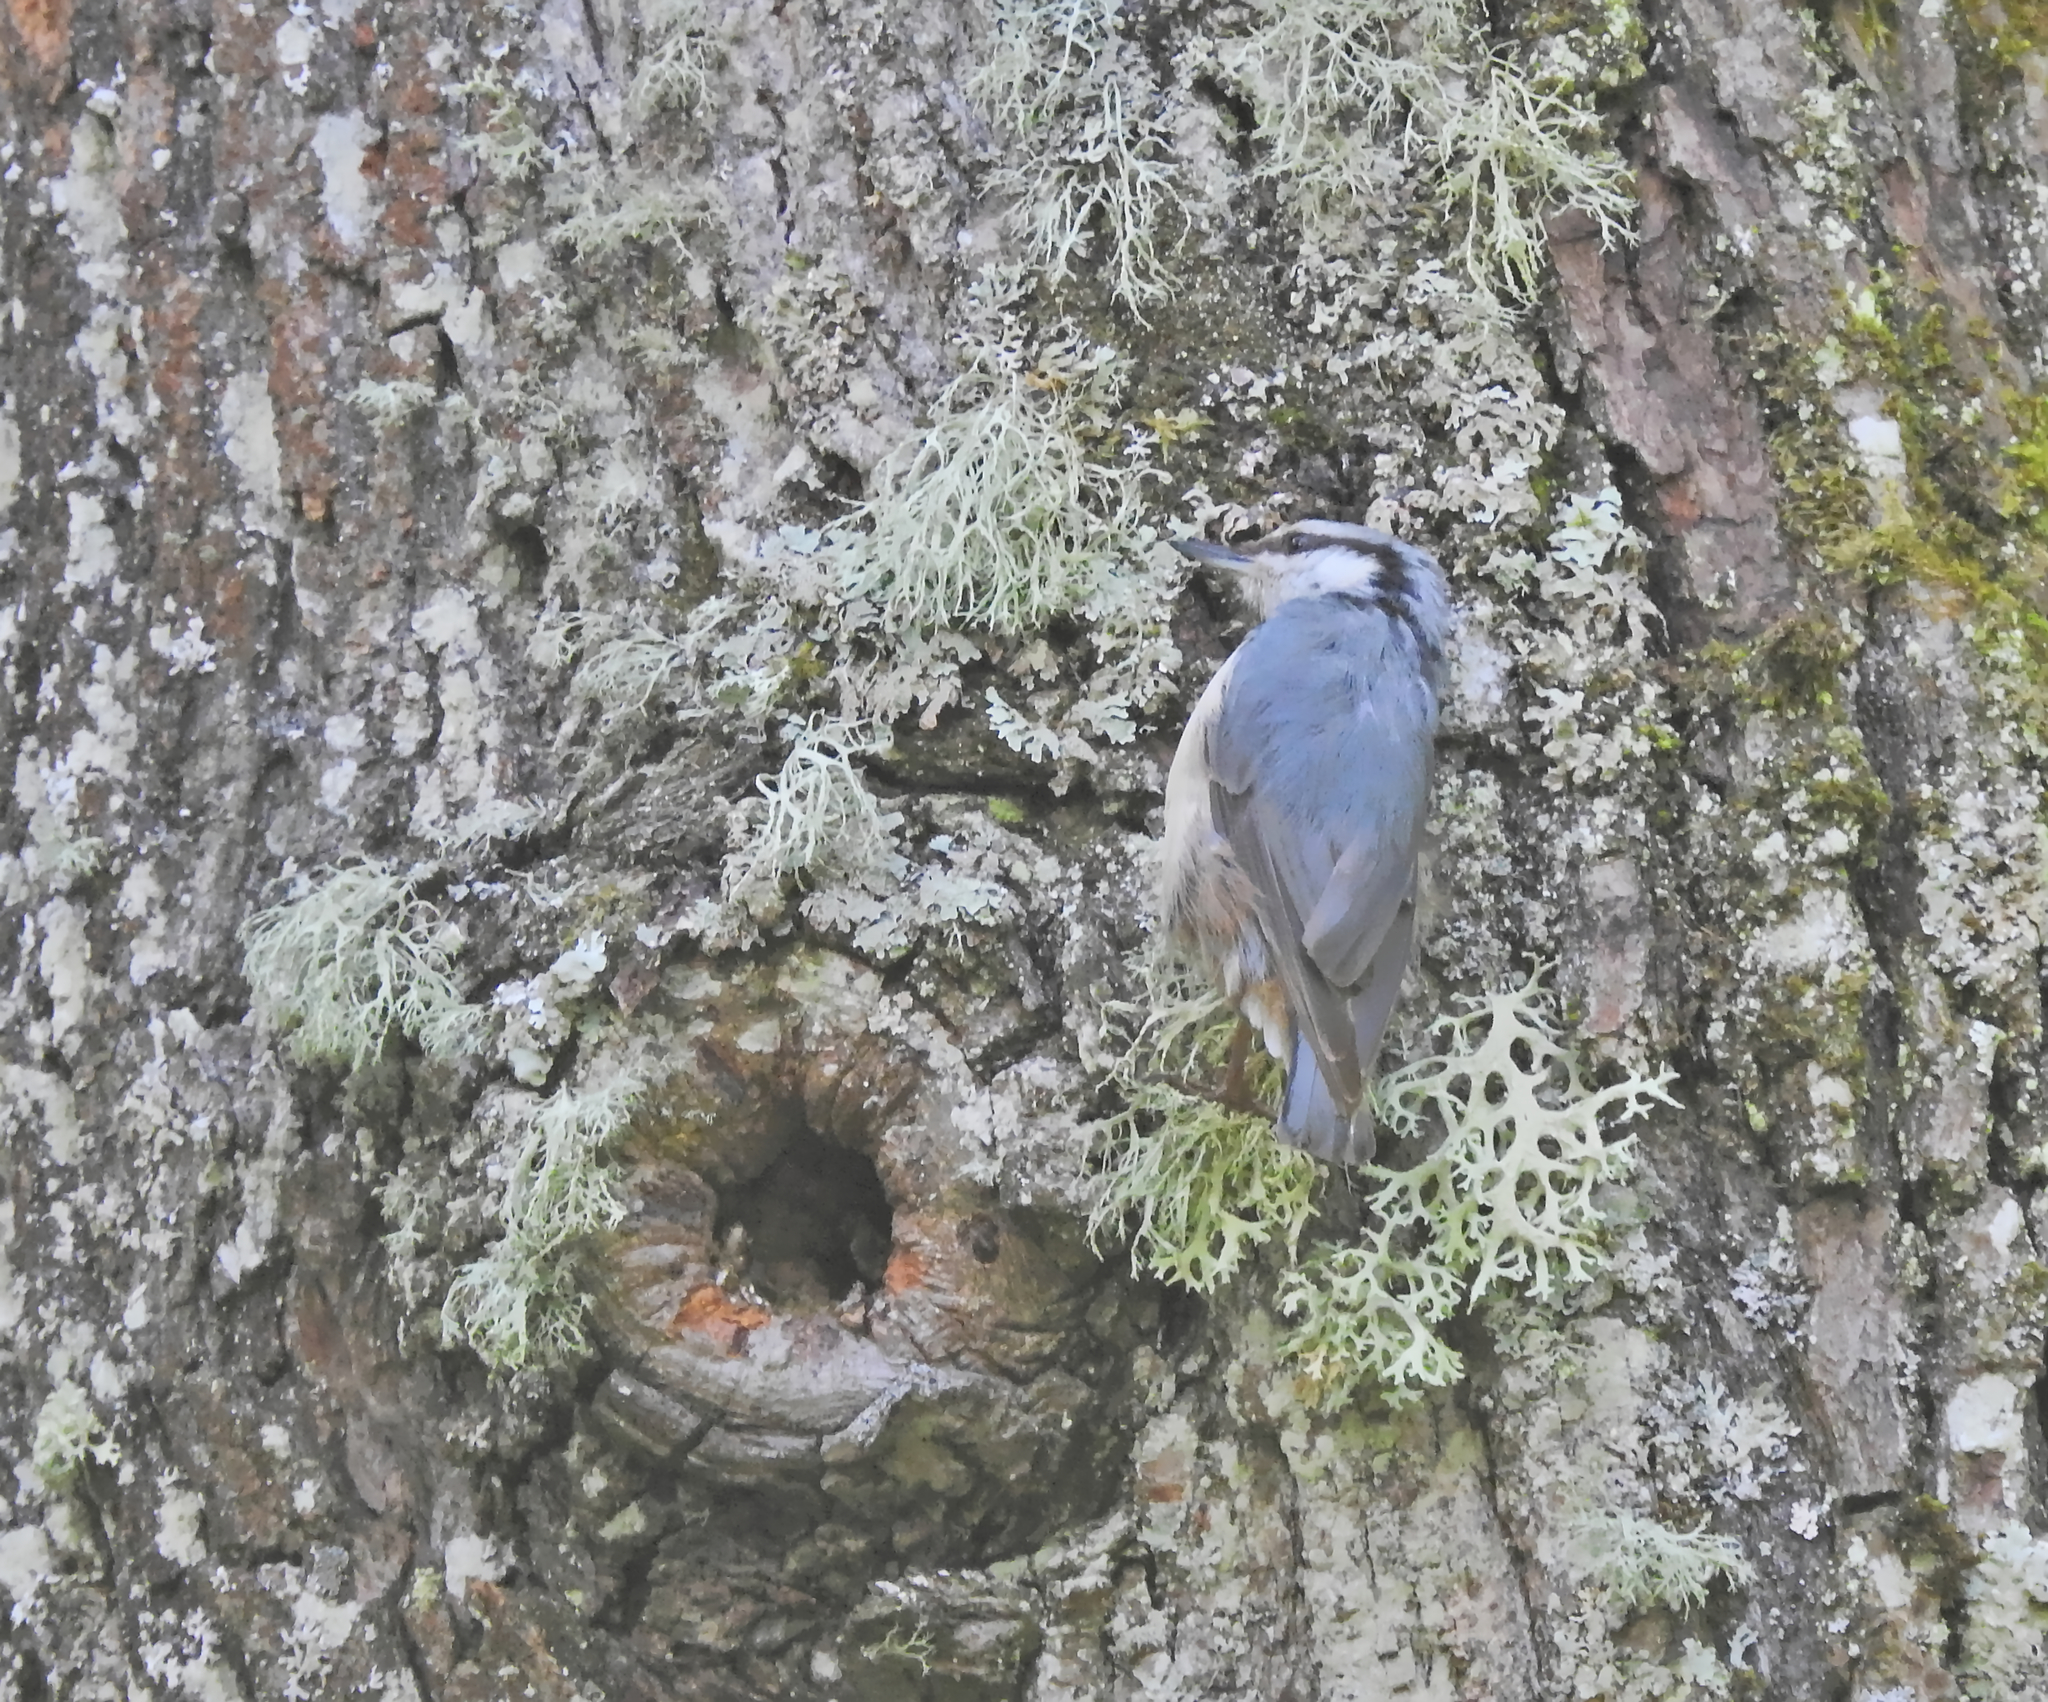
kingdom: Animalia
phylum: Chordata
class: Aves
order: Passeriformes
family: Sittidae
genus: Sitta
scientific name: Sitta europaea
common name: Eurasian nuthatch
